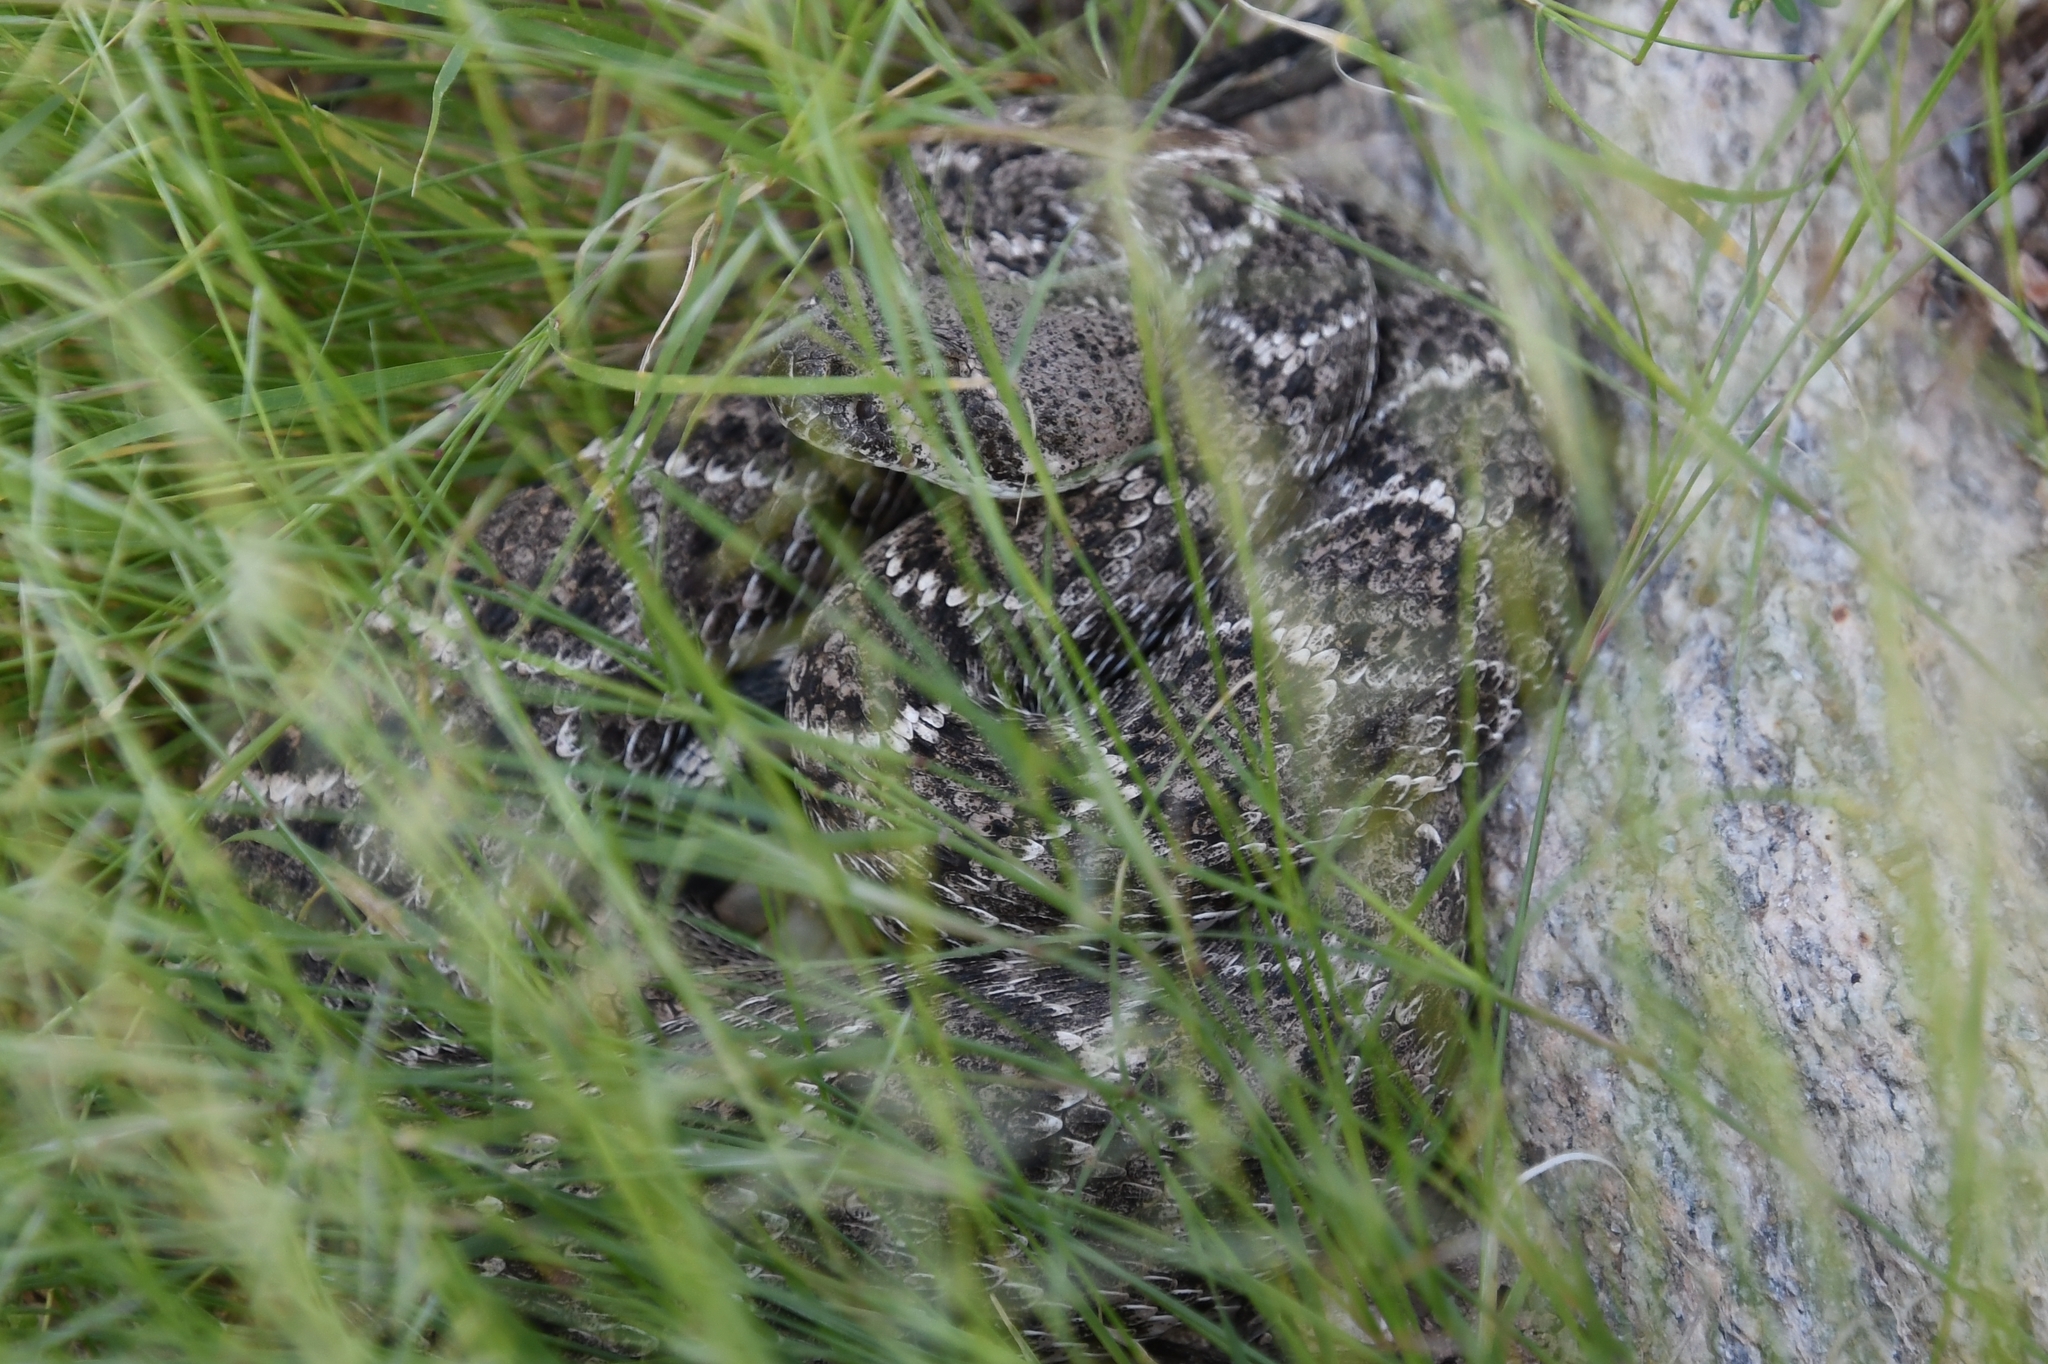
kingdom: Animalia
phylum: Chordata
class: Squamata
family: Viperidae
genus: Crotalus
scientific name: Crotalus atrox
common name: Western diamond-backed rattlesnake
